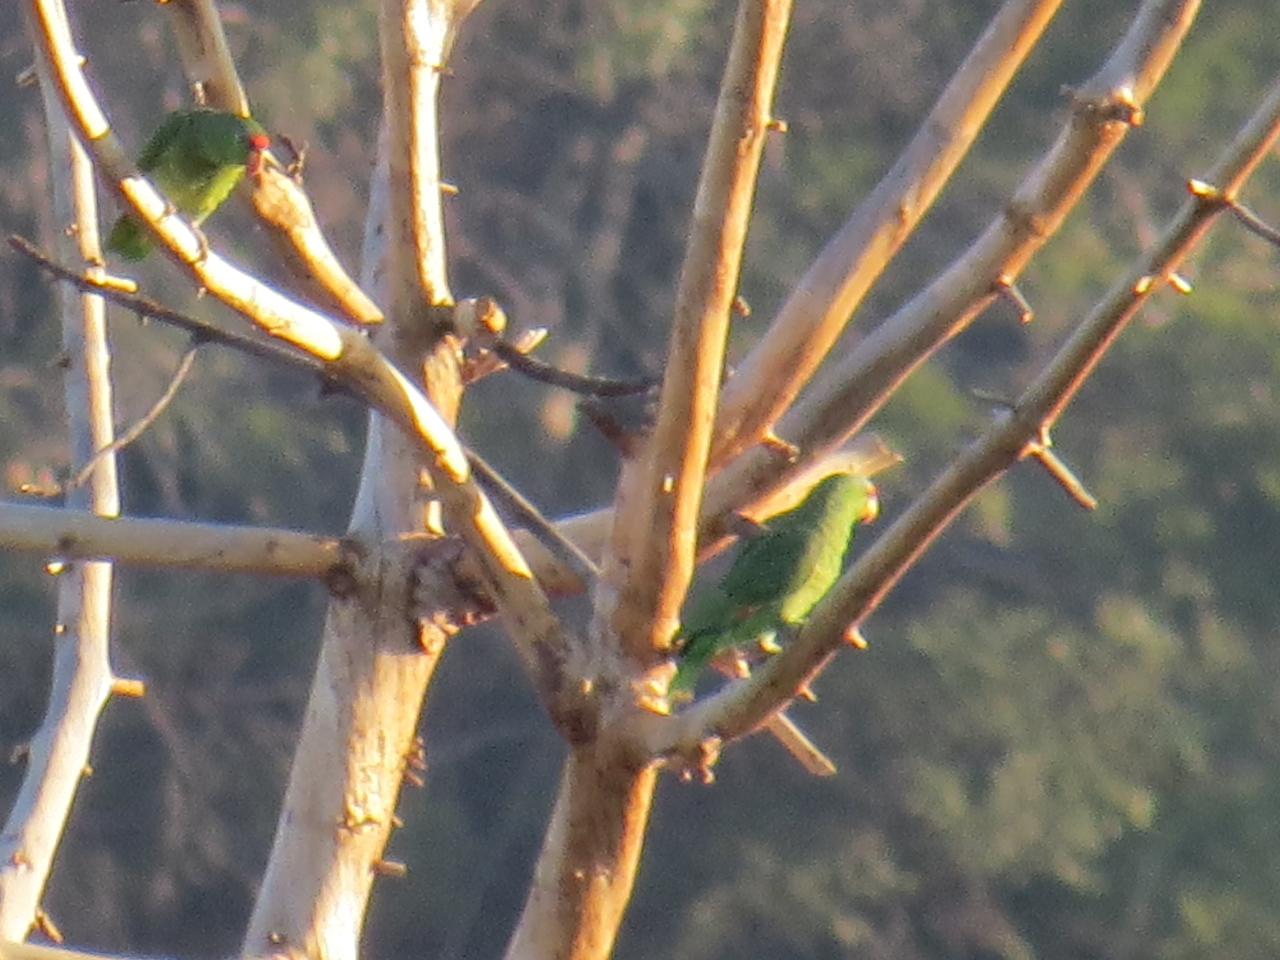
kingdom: Animalia
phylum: Chordata
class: Aves
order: Psittaciformes
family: Psittacidae
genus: Amazona
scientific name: Amazona finschi
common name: Lilac-crowned amazon
